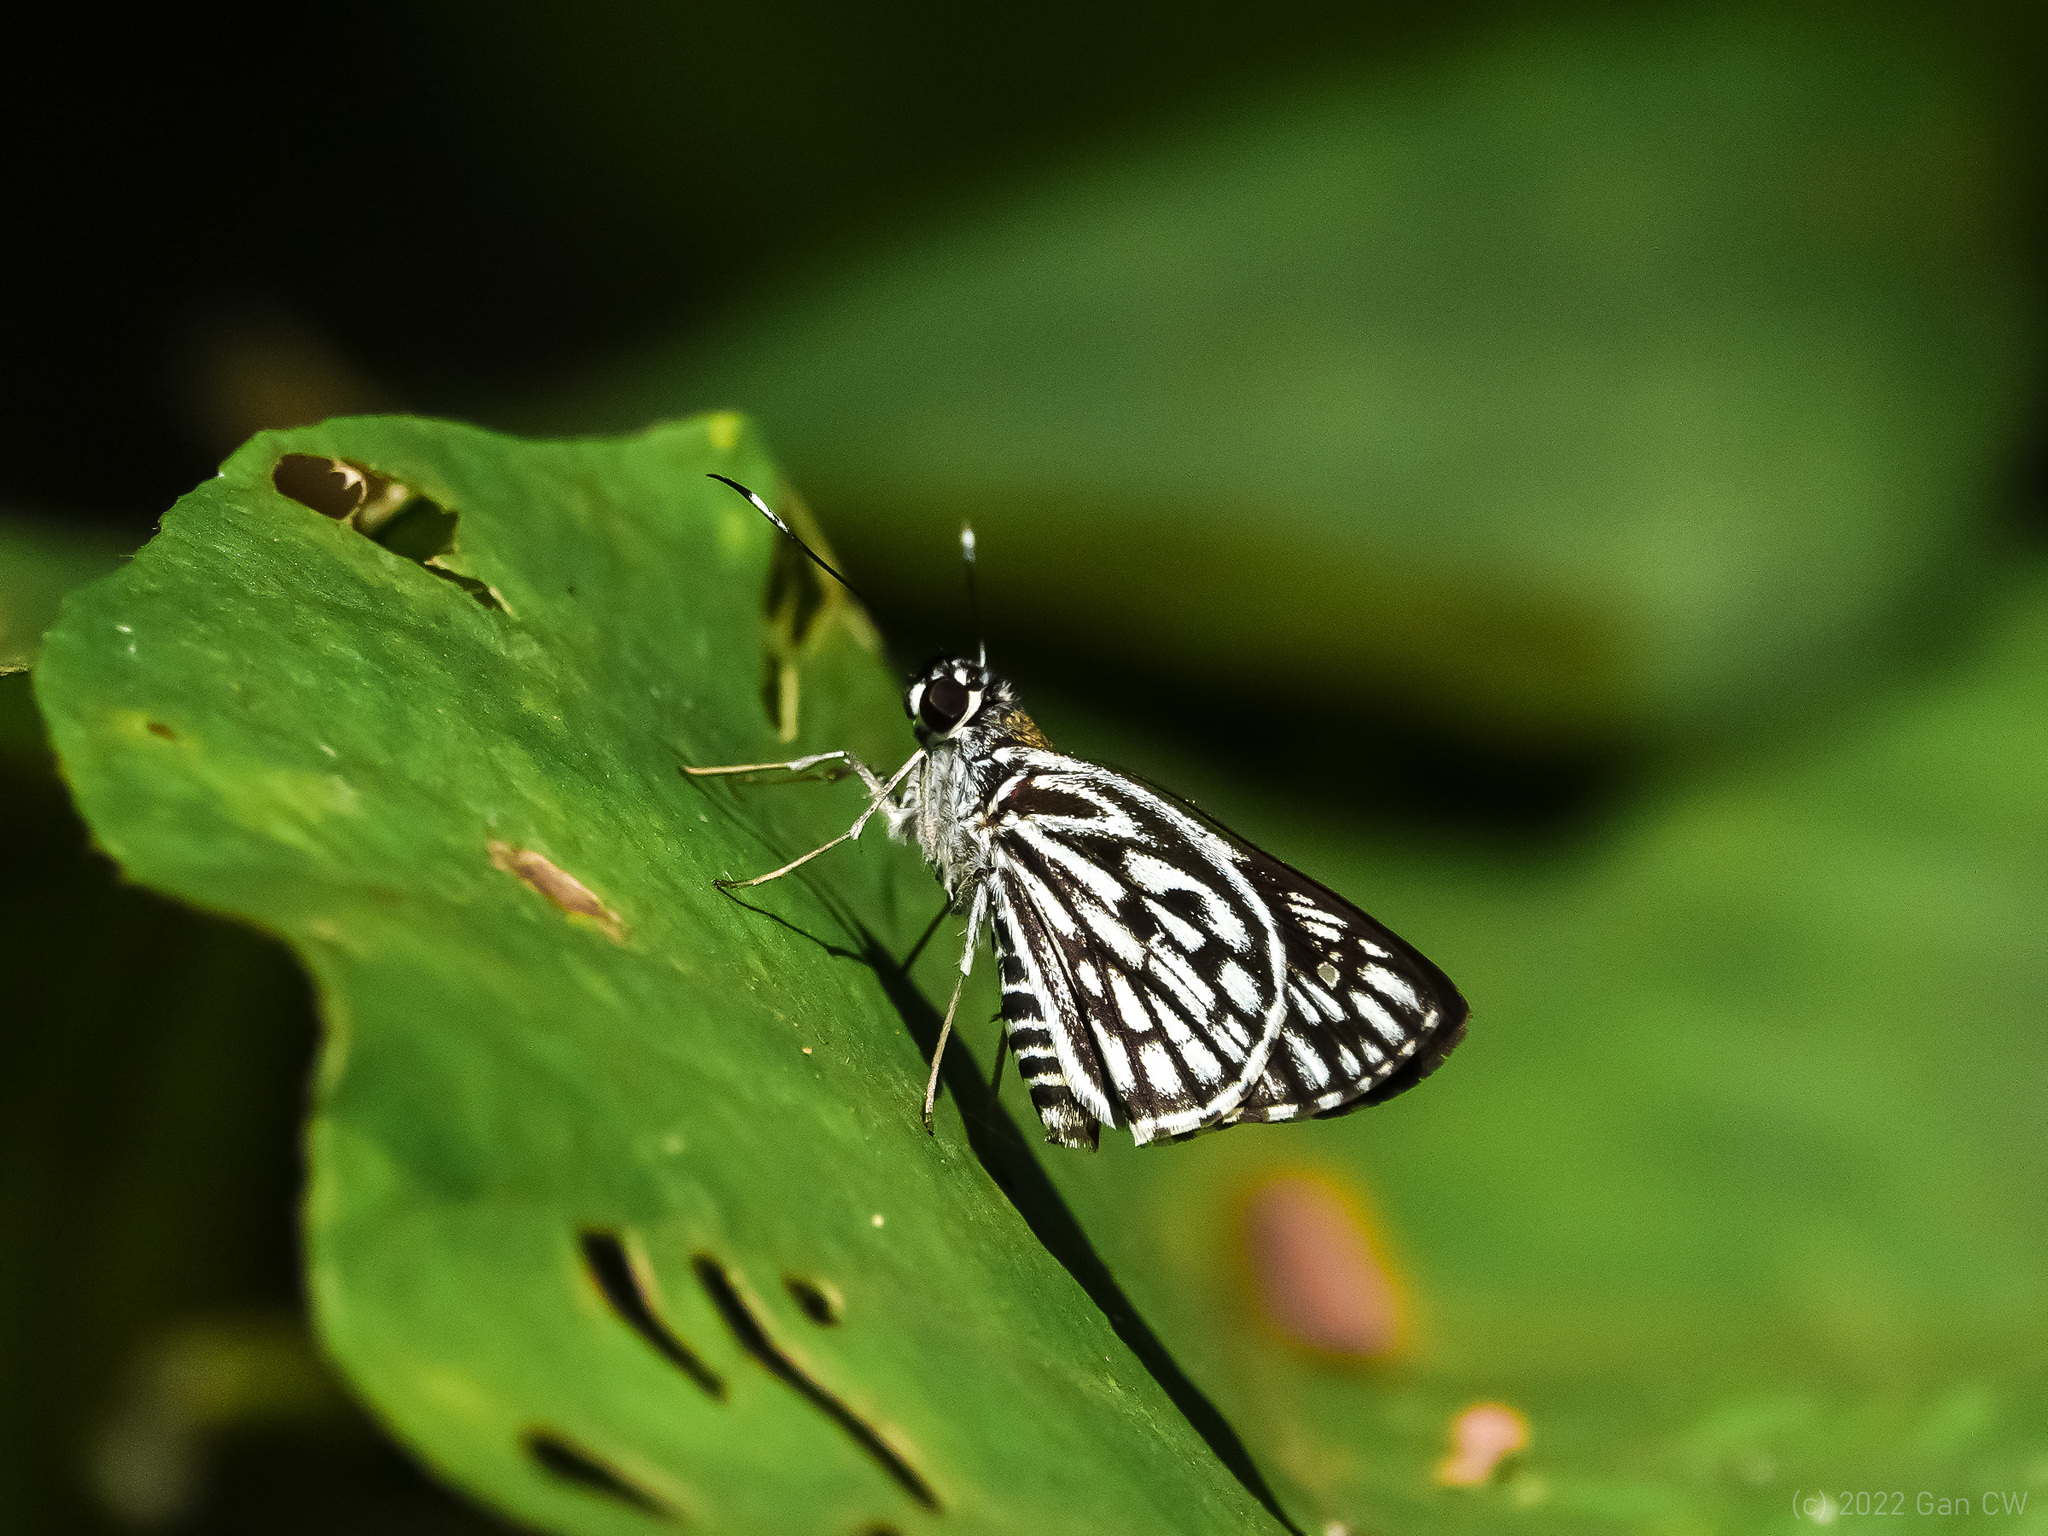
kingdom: Animalia
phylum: Arthropoda
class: Insecta
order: Lepidoptera
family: Hesperiidae
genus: Plastingia
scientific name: Plastingia naga
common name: Chequered lancer
